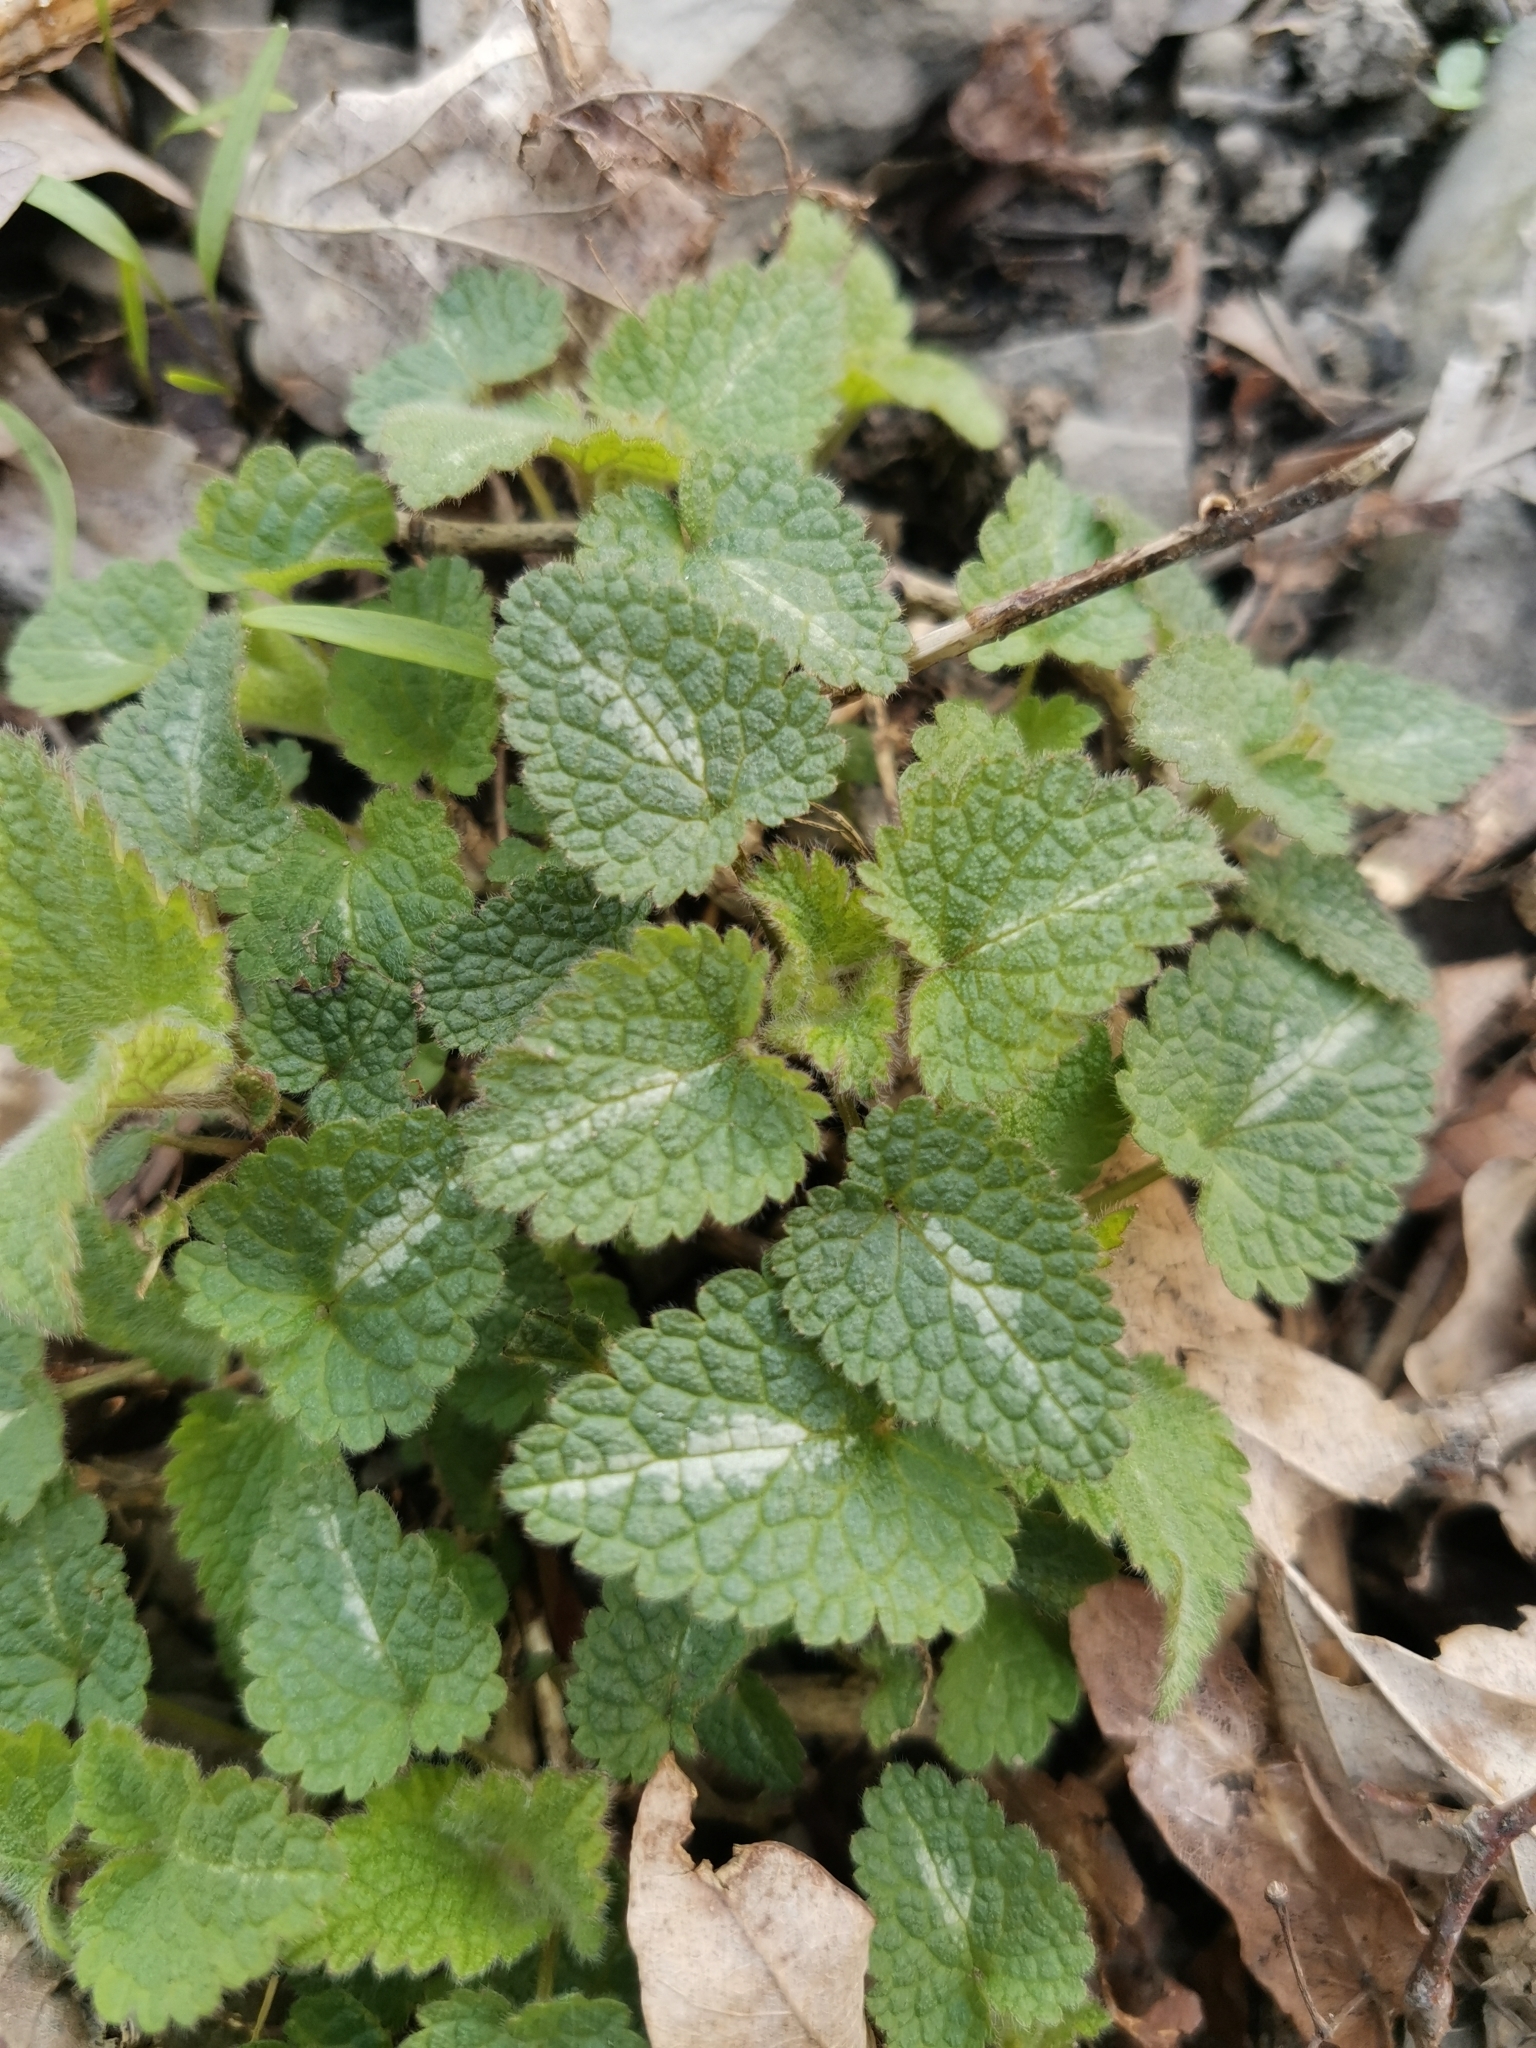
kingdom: Plantae
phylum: Tracheophyta
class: Magnoliopsida
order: Lamiales
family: Lamiaceae
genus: Lamium
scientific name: Lamium maculatum
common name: Spotted dead-nettle
